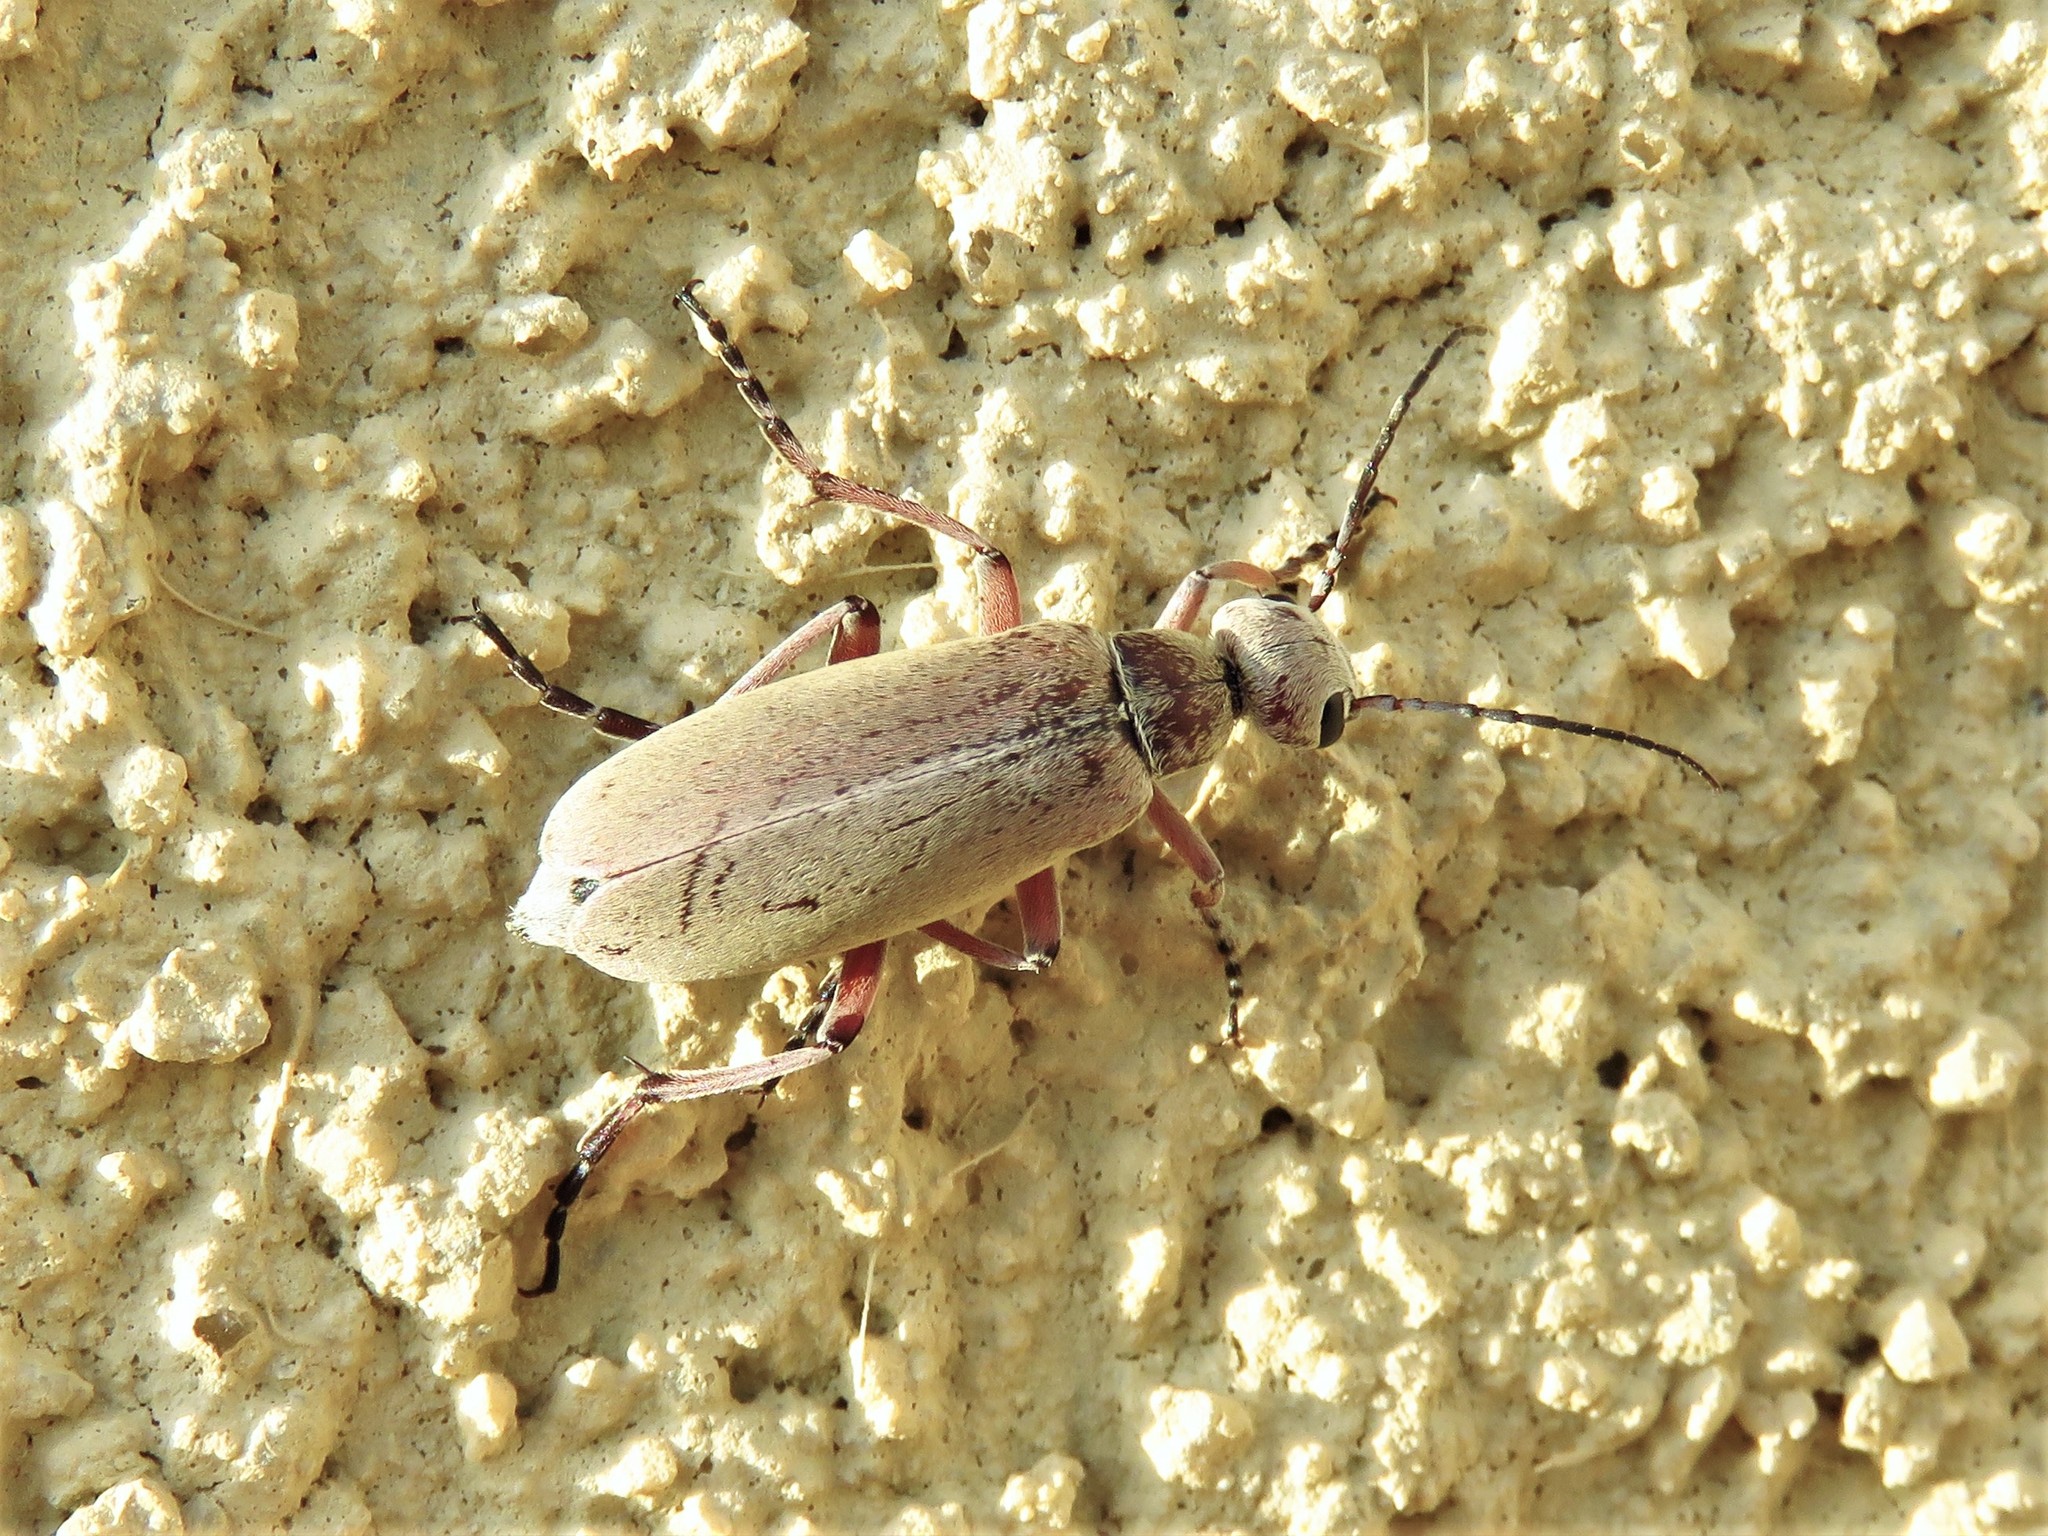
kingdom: Animalia
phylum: Arthropoda
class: Insecta
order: Coleoptera
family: Meloidae
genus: Epicauta
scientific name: Epicauta nigritarsis
